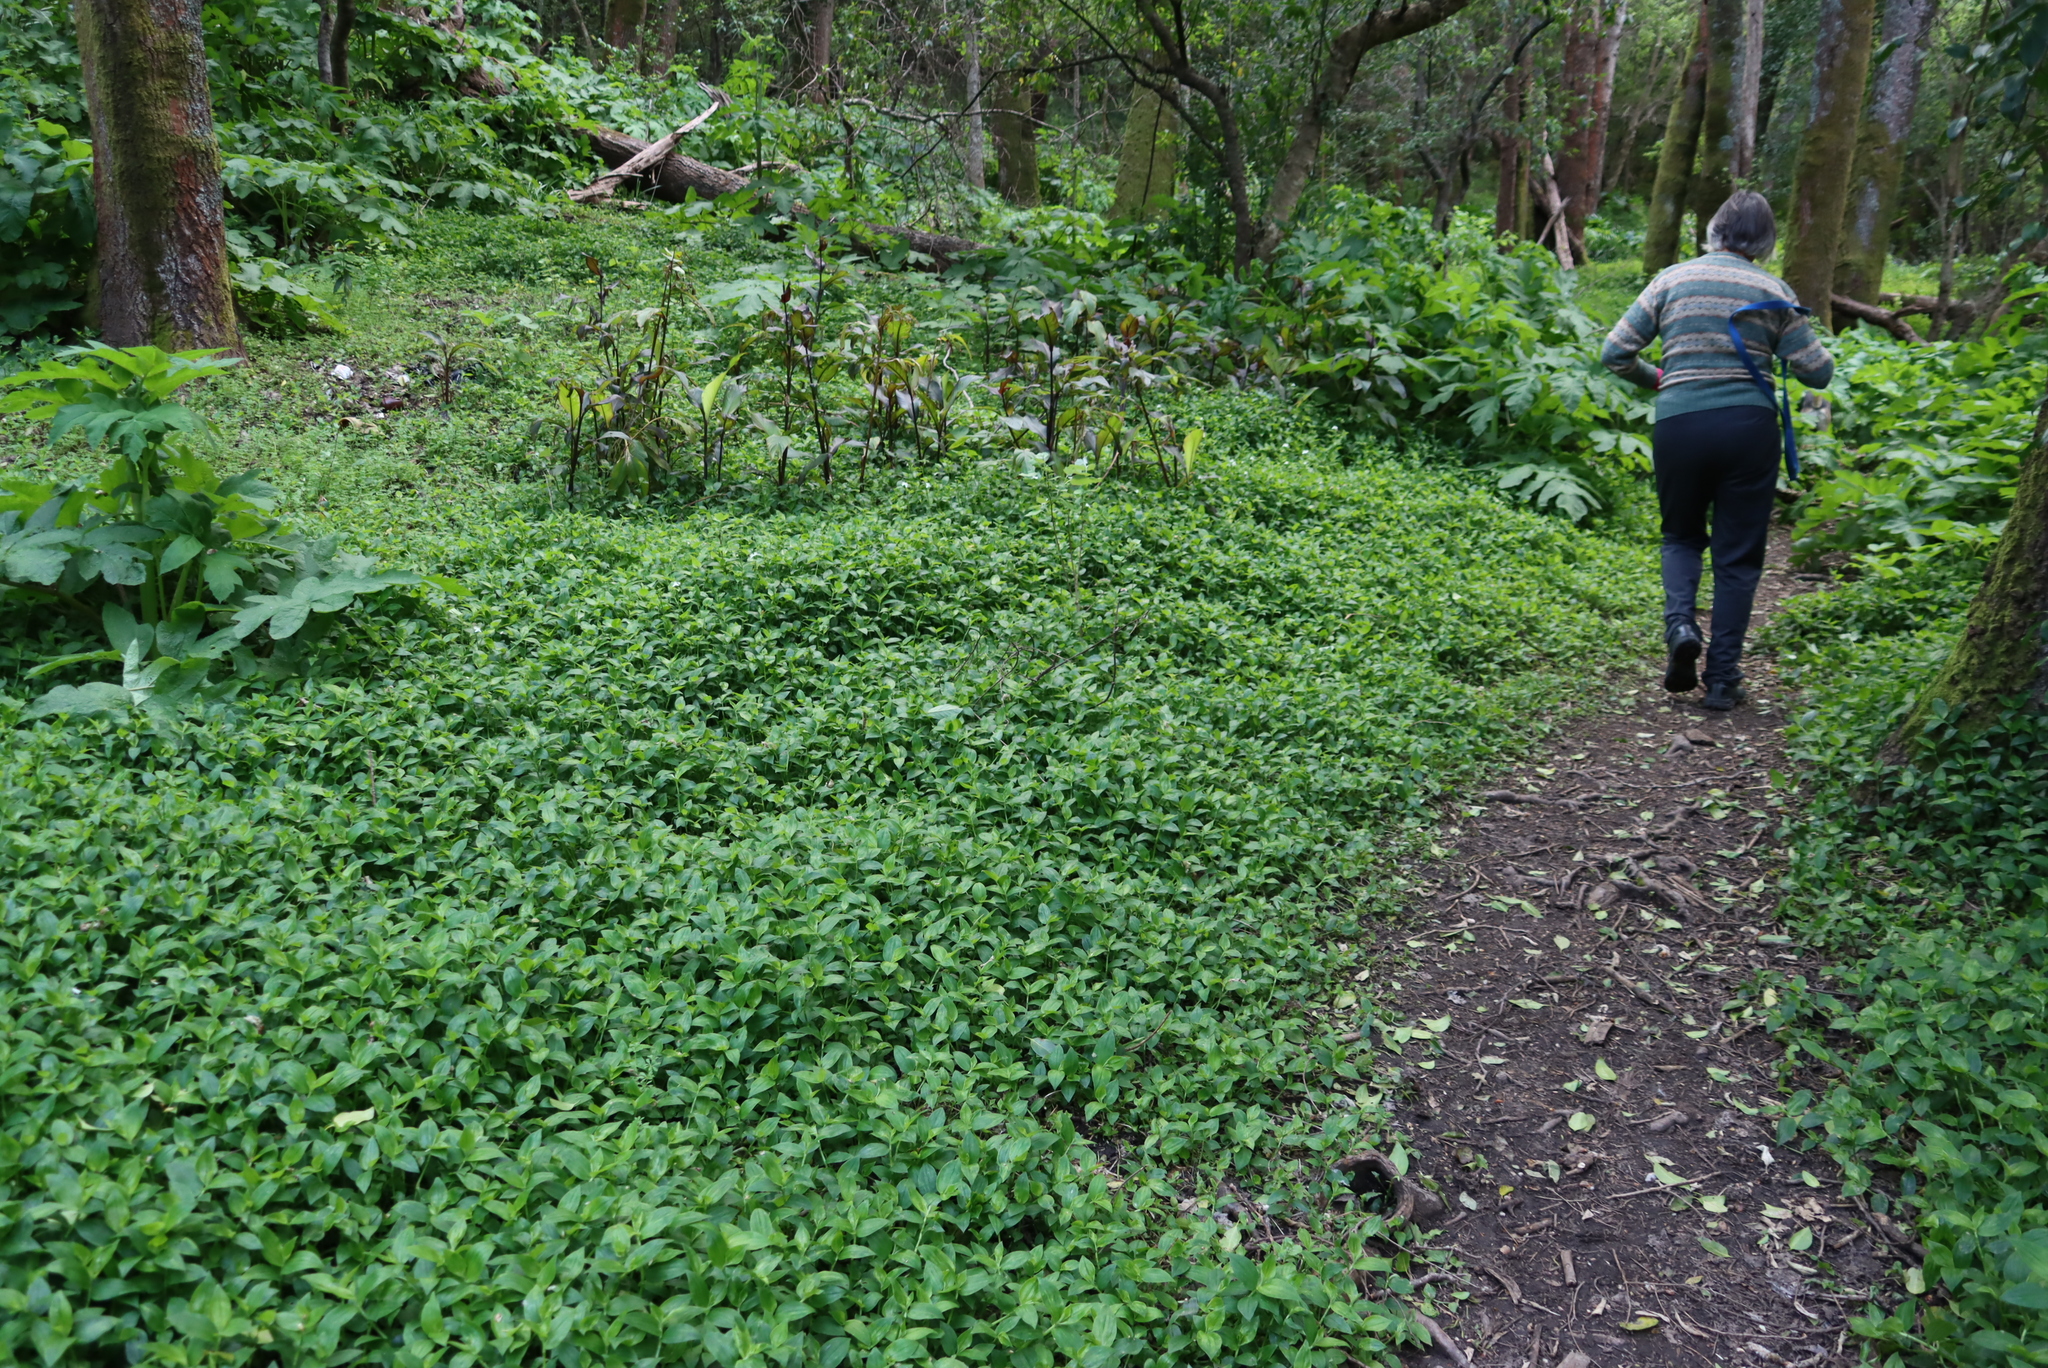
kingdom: Plantae
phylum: Tracheophyta
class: Liliopsida
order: Commelinales
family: Commelinaceae
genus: Tradescantia
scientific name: Tradescantia fluminensis
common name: Wandering-jew
